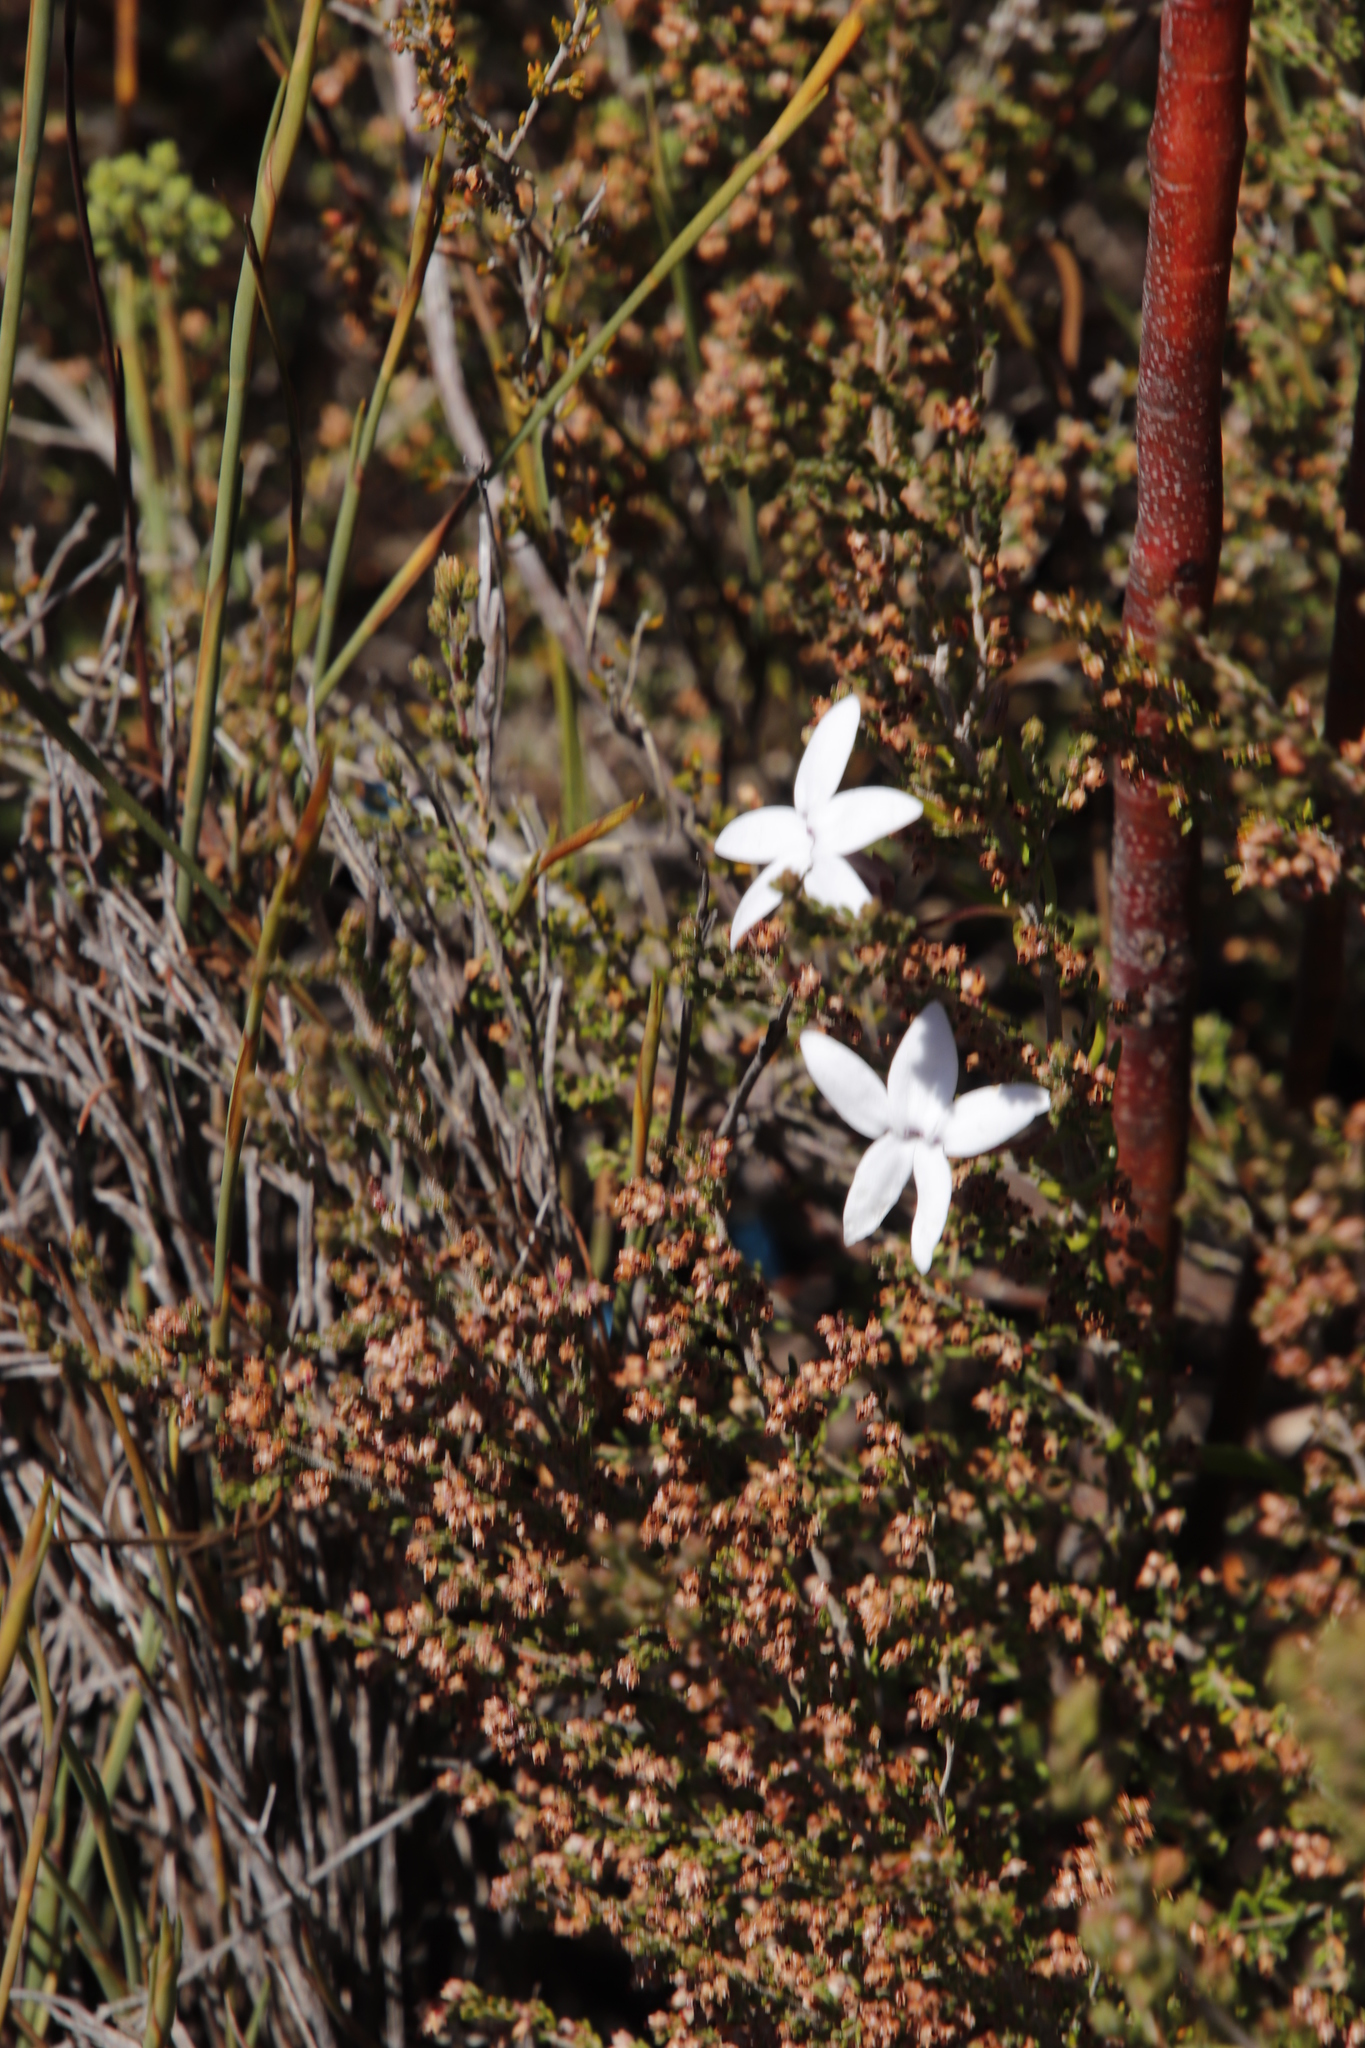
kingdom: Plantae
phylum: Tracheophyta
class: Magnoliopsida
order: Asterales
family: Campanulaceae
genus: Cyphia
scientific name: Cyphia volubilis
